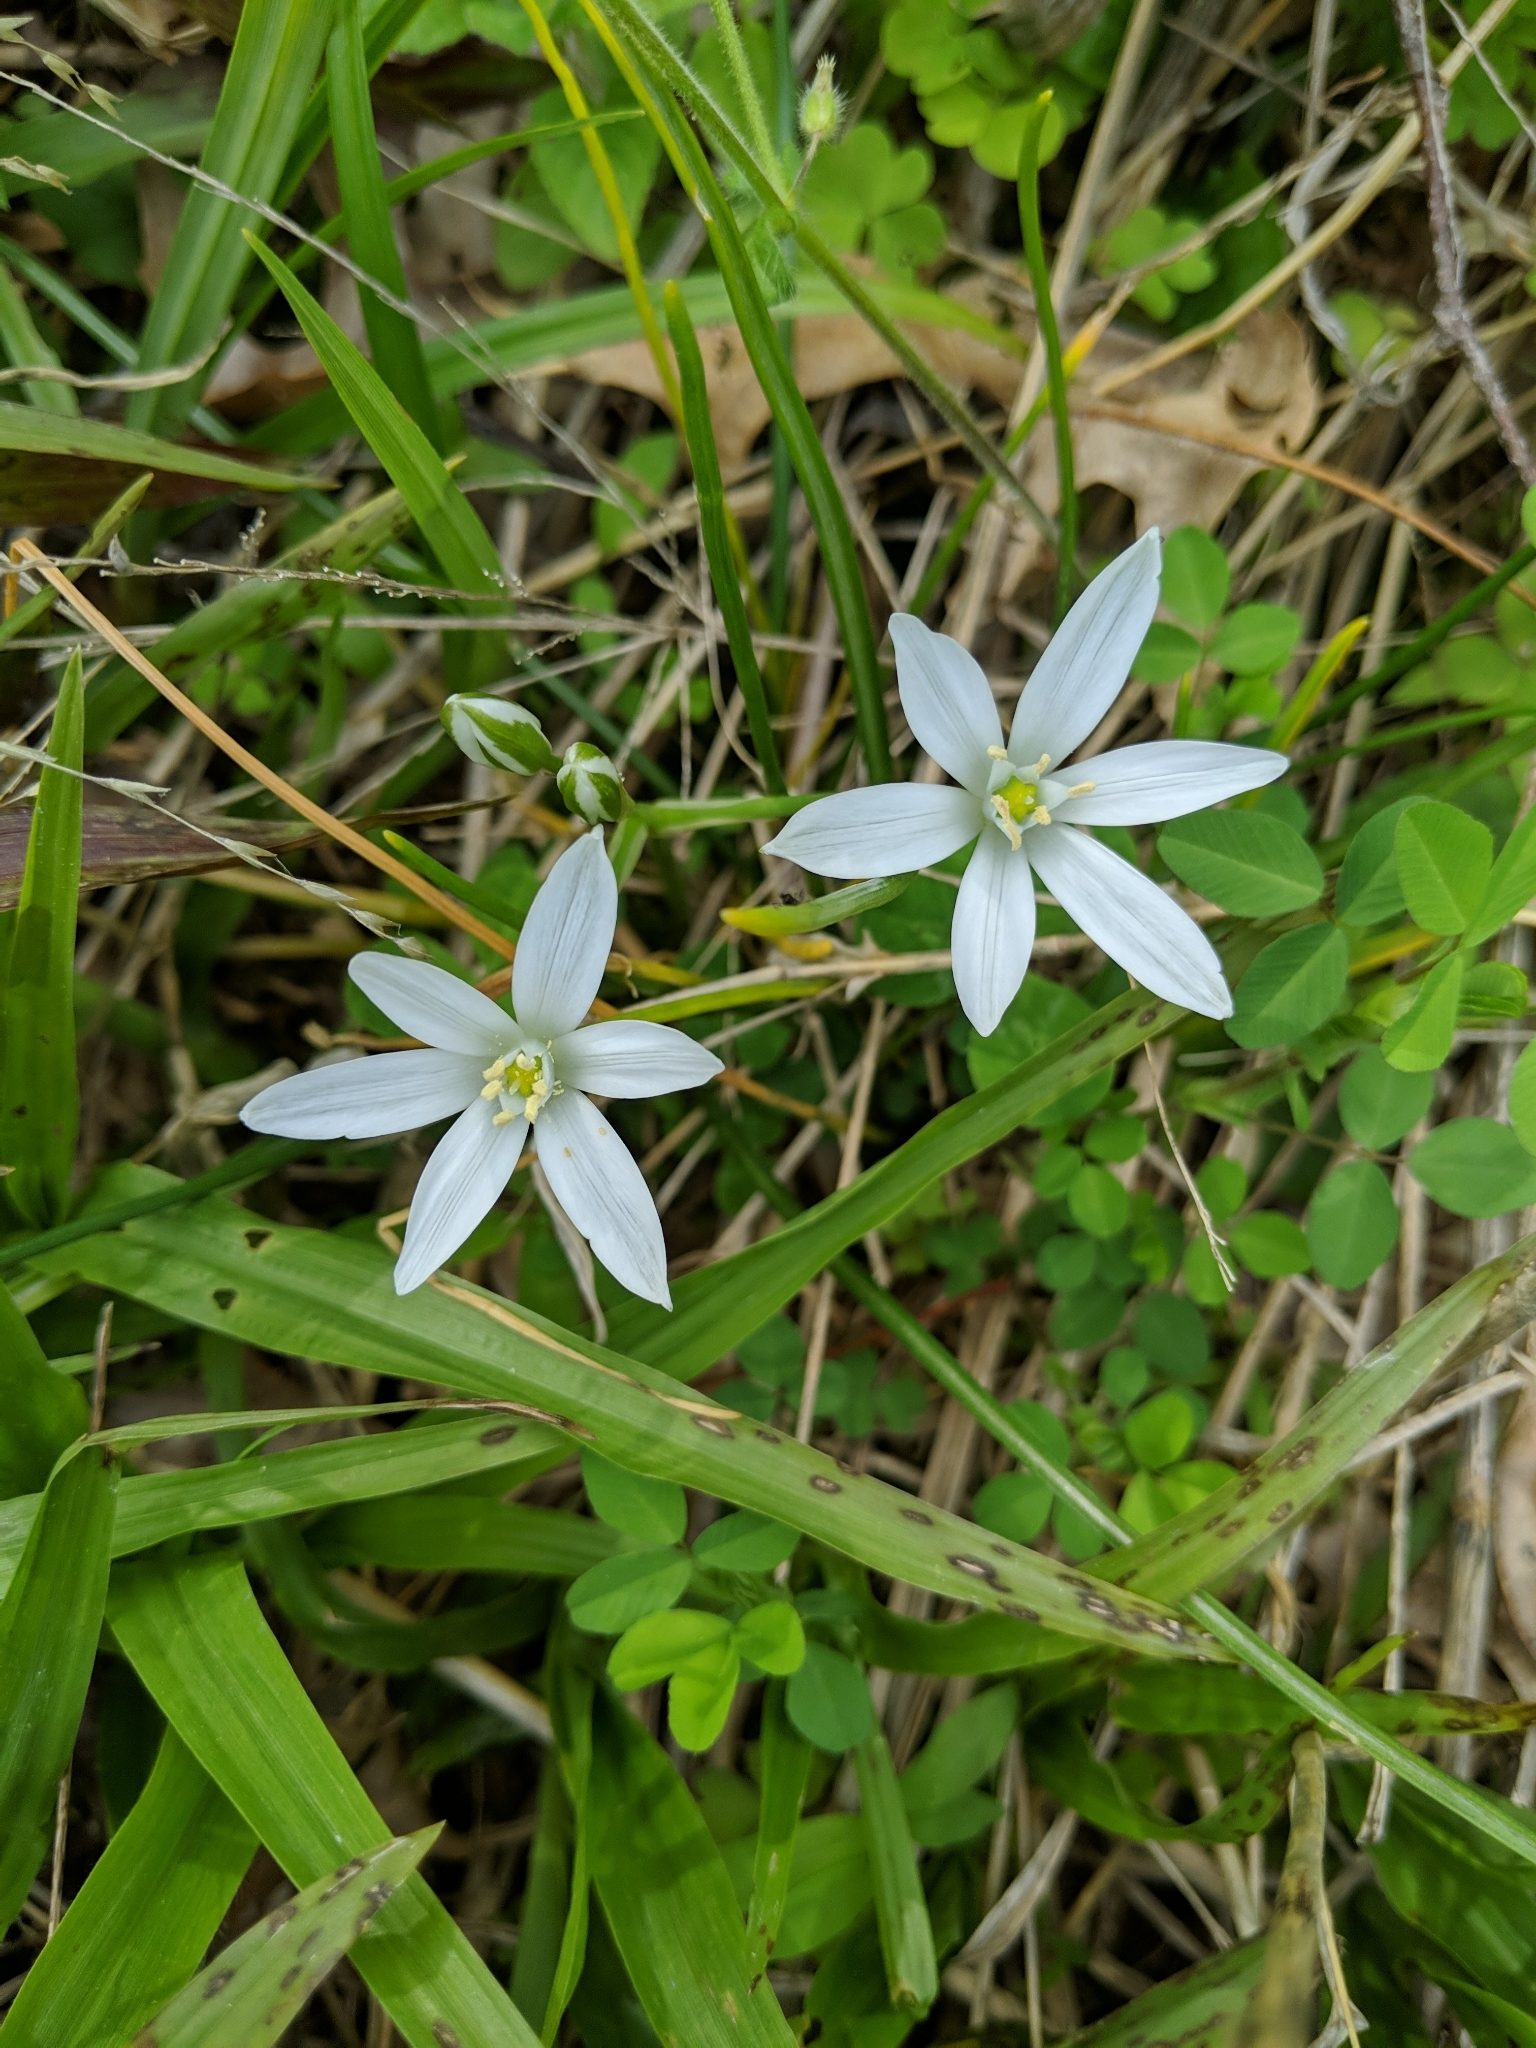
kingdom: Plantae
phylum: Tracheophyta
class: Liliopsida
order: Asparagales
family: Asparagaceae
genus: Ornithogalum
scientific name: Ornithogalum umbellatum
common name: Garden star-of-bethlehem
